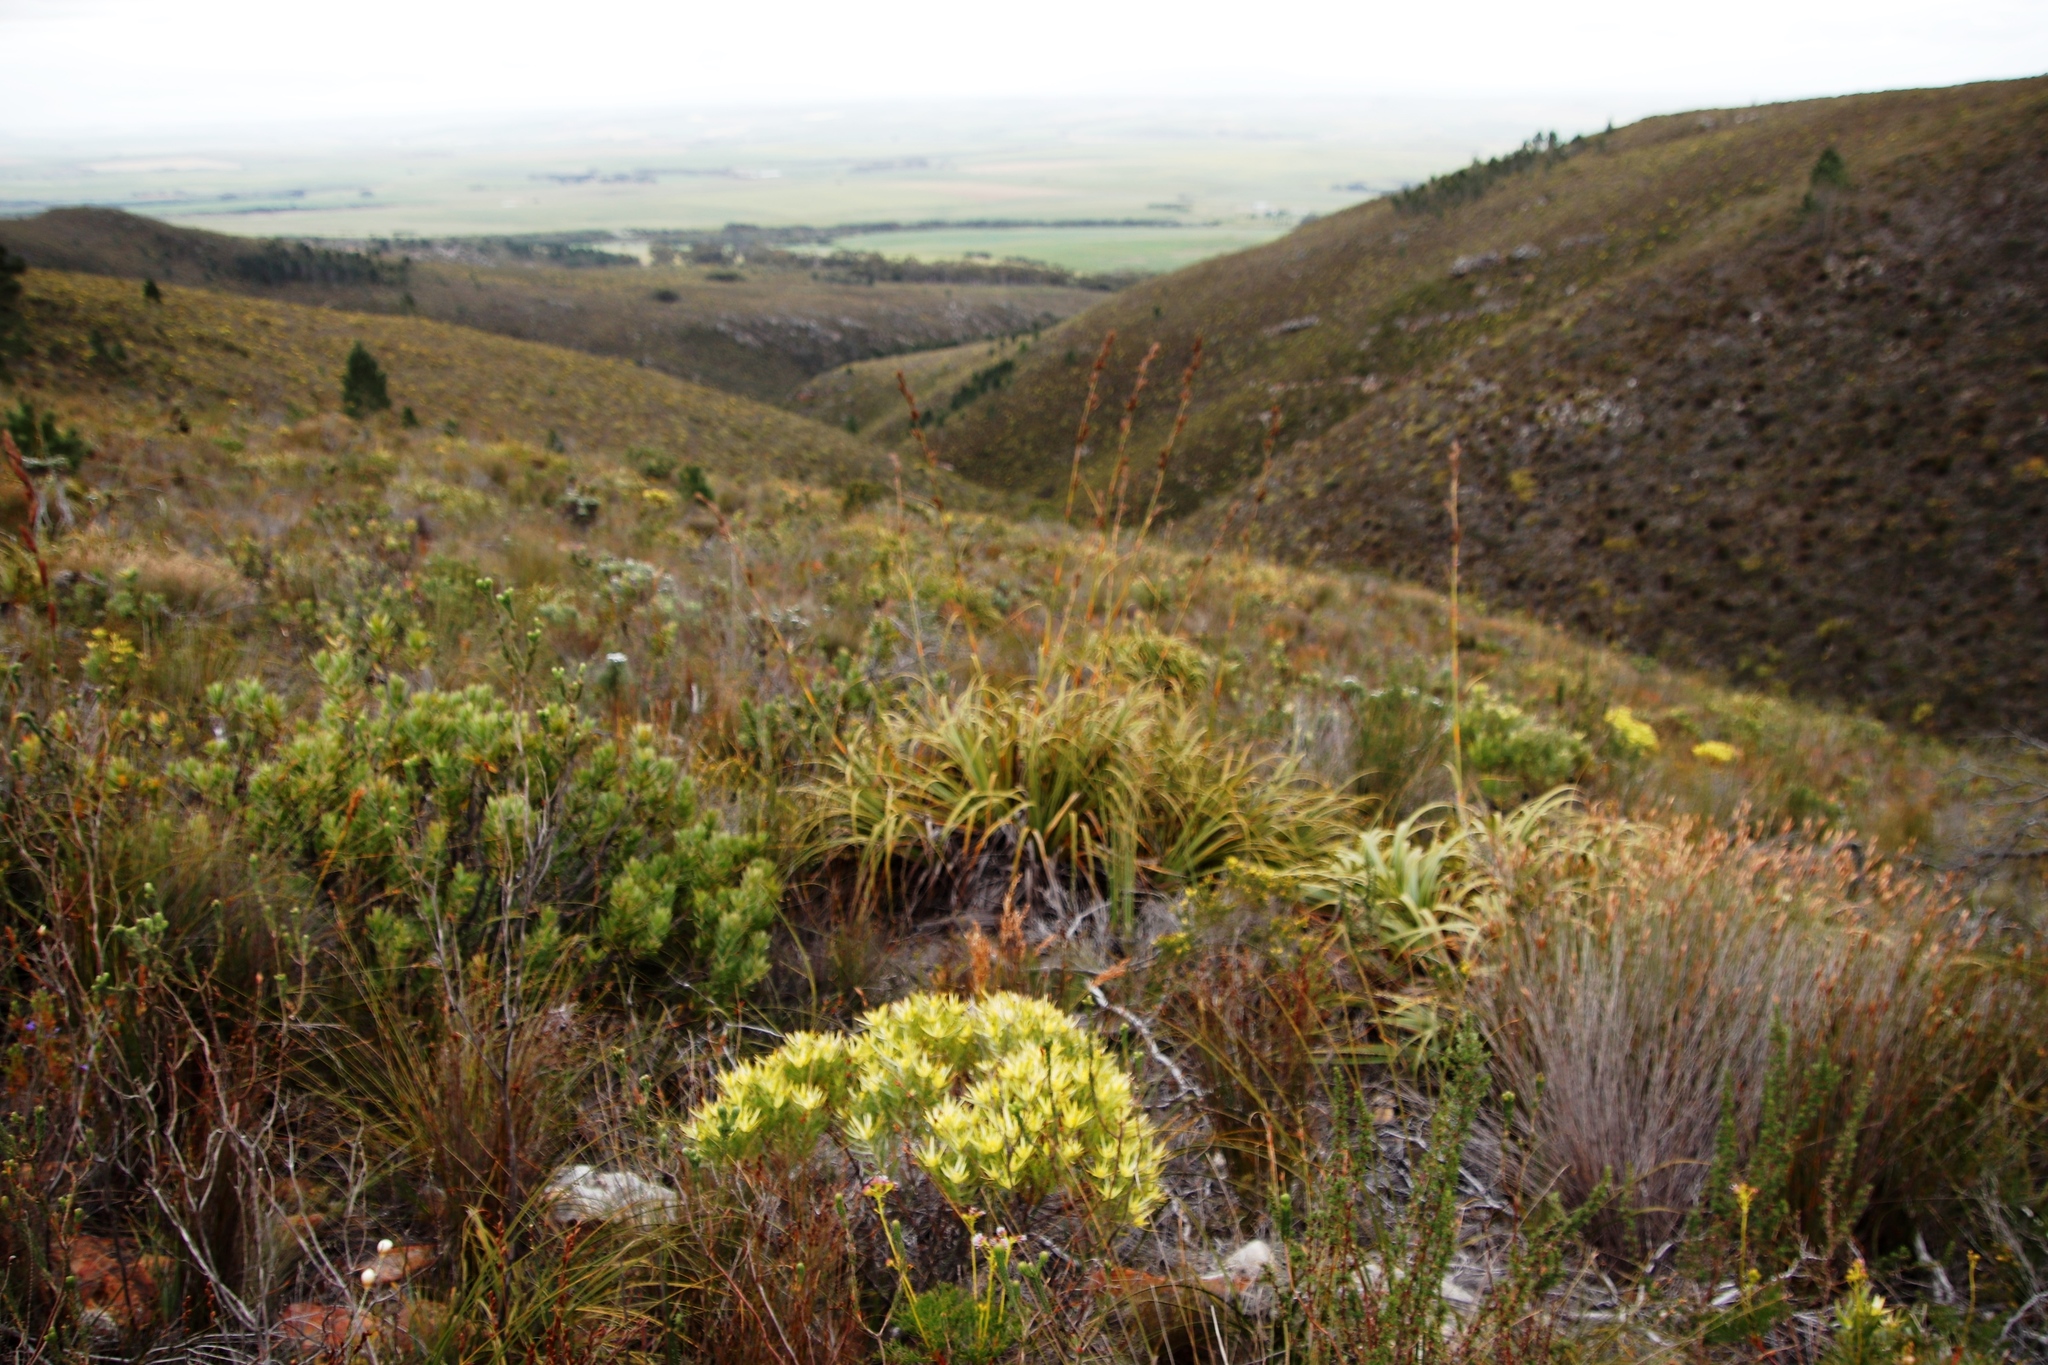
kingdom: Plantae
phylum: Tracheophyta
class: Liliopsida
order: Poales
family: Cyperaceae
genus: Tetraria
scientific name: Tetraria thermalis
